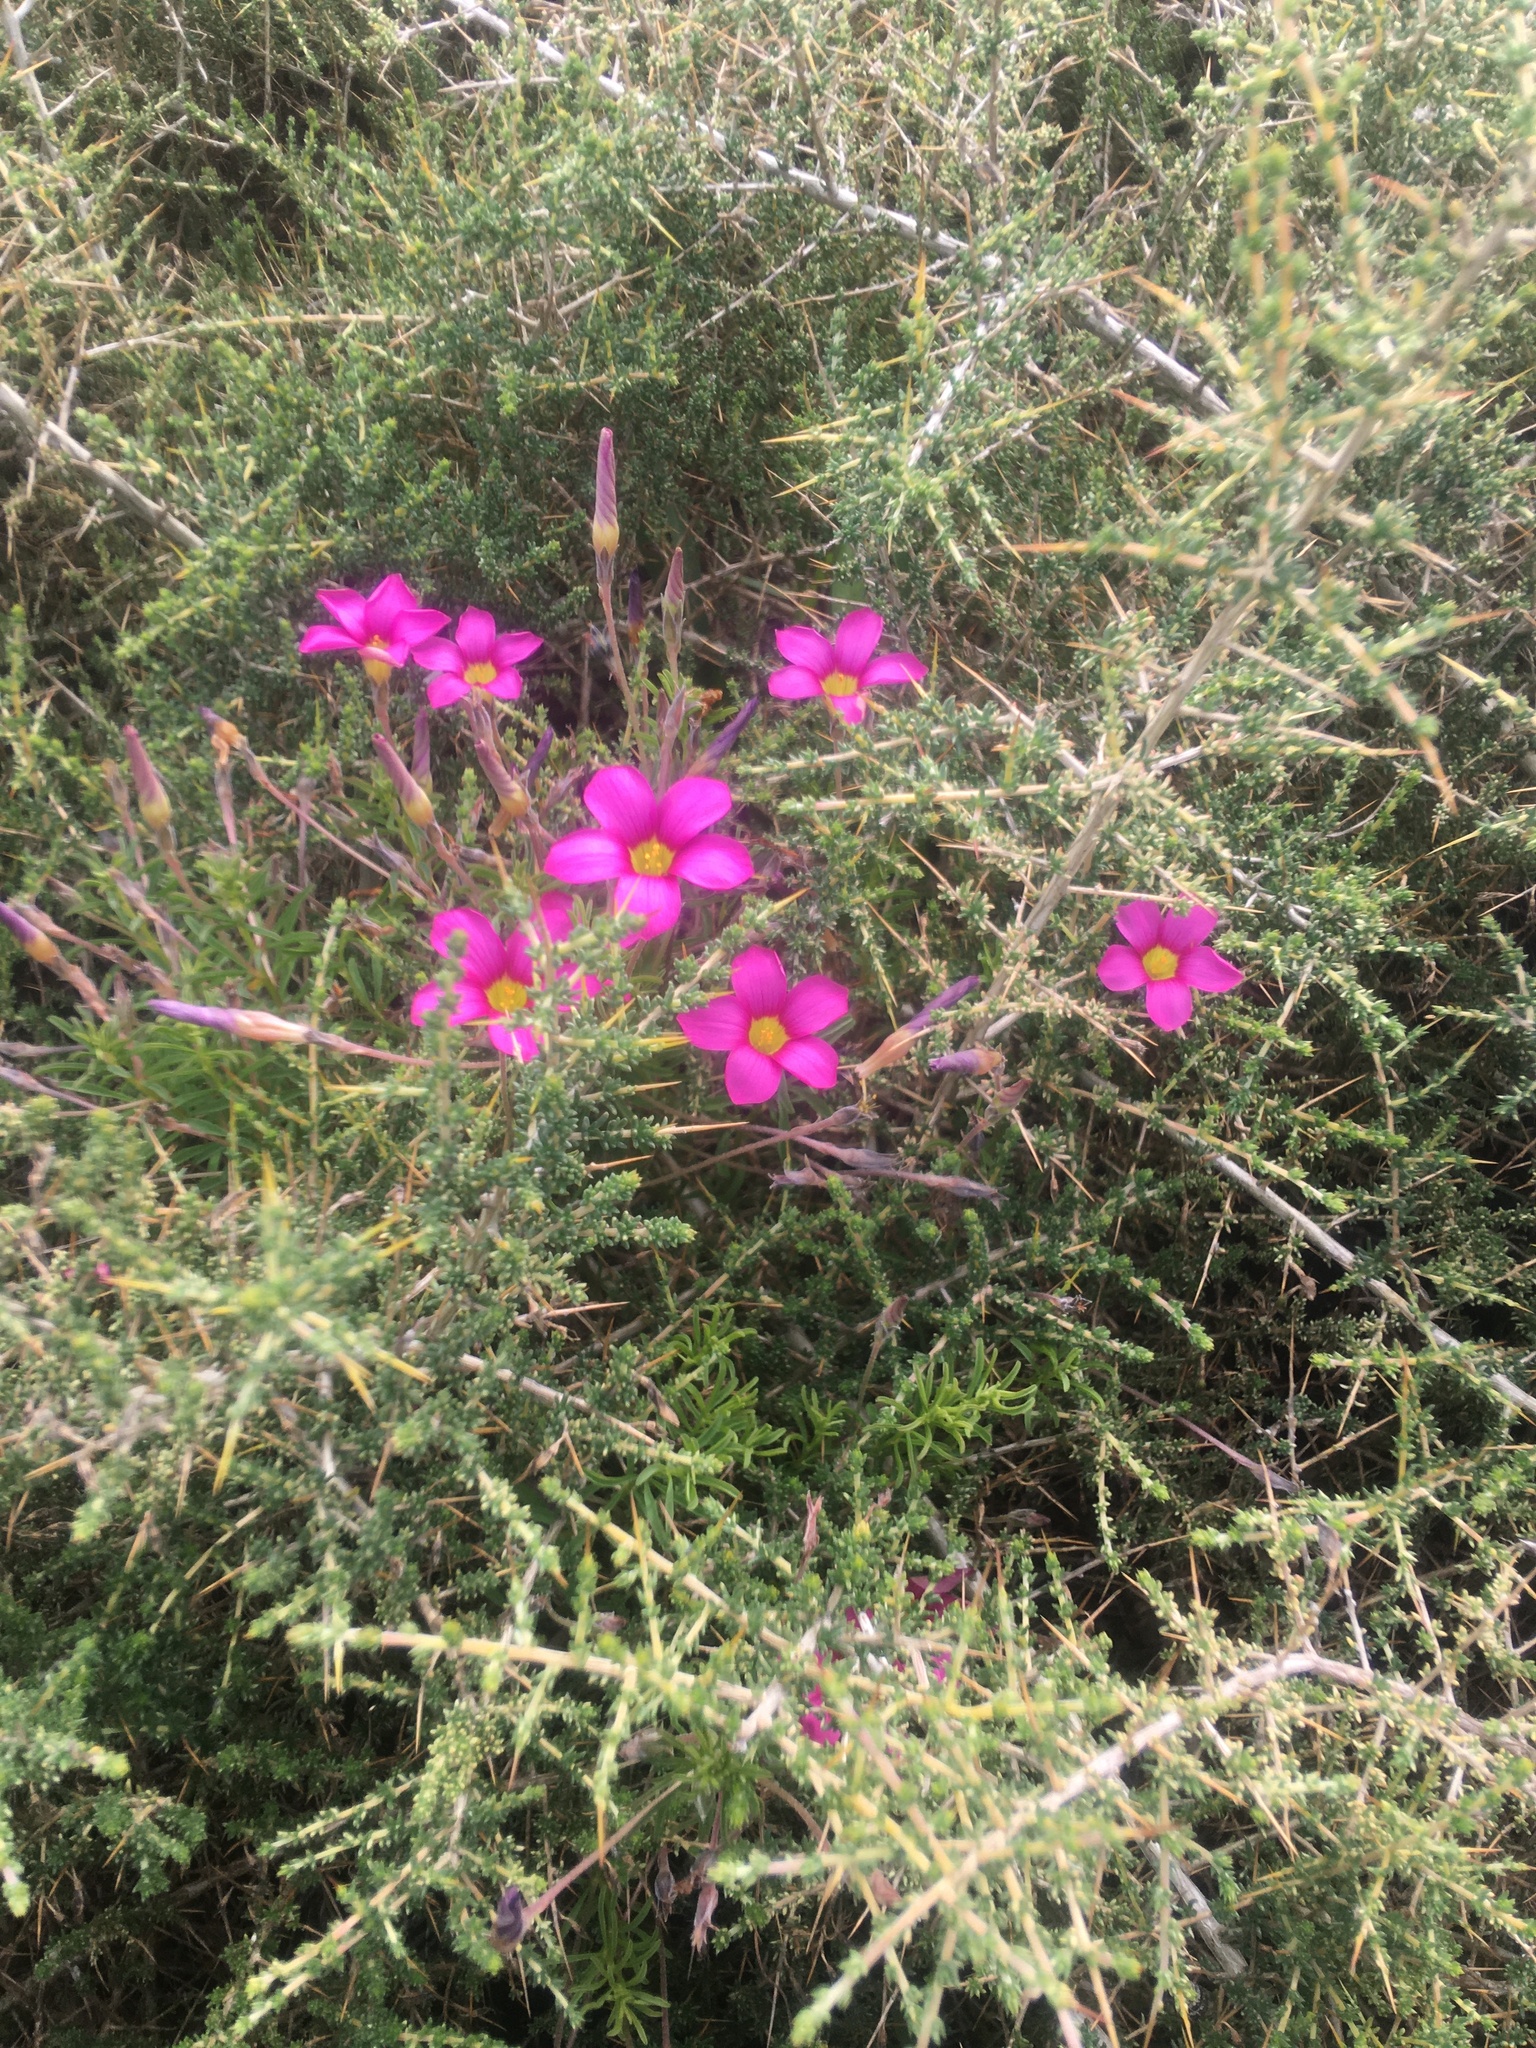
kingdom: Plantae
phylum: Tracheophyta
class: Magnoliopsida
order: Oxalidales
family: Oxalidaceae
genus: Oxalis
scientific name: Oxalis hirta
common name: Tropical woodsorrel
